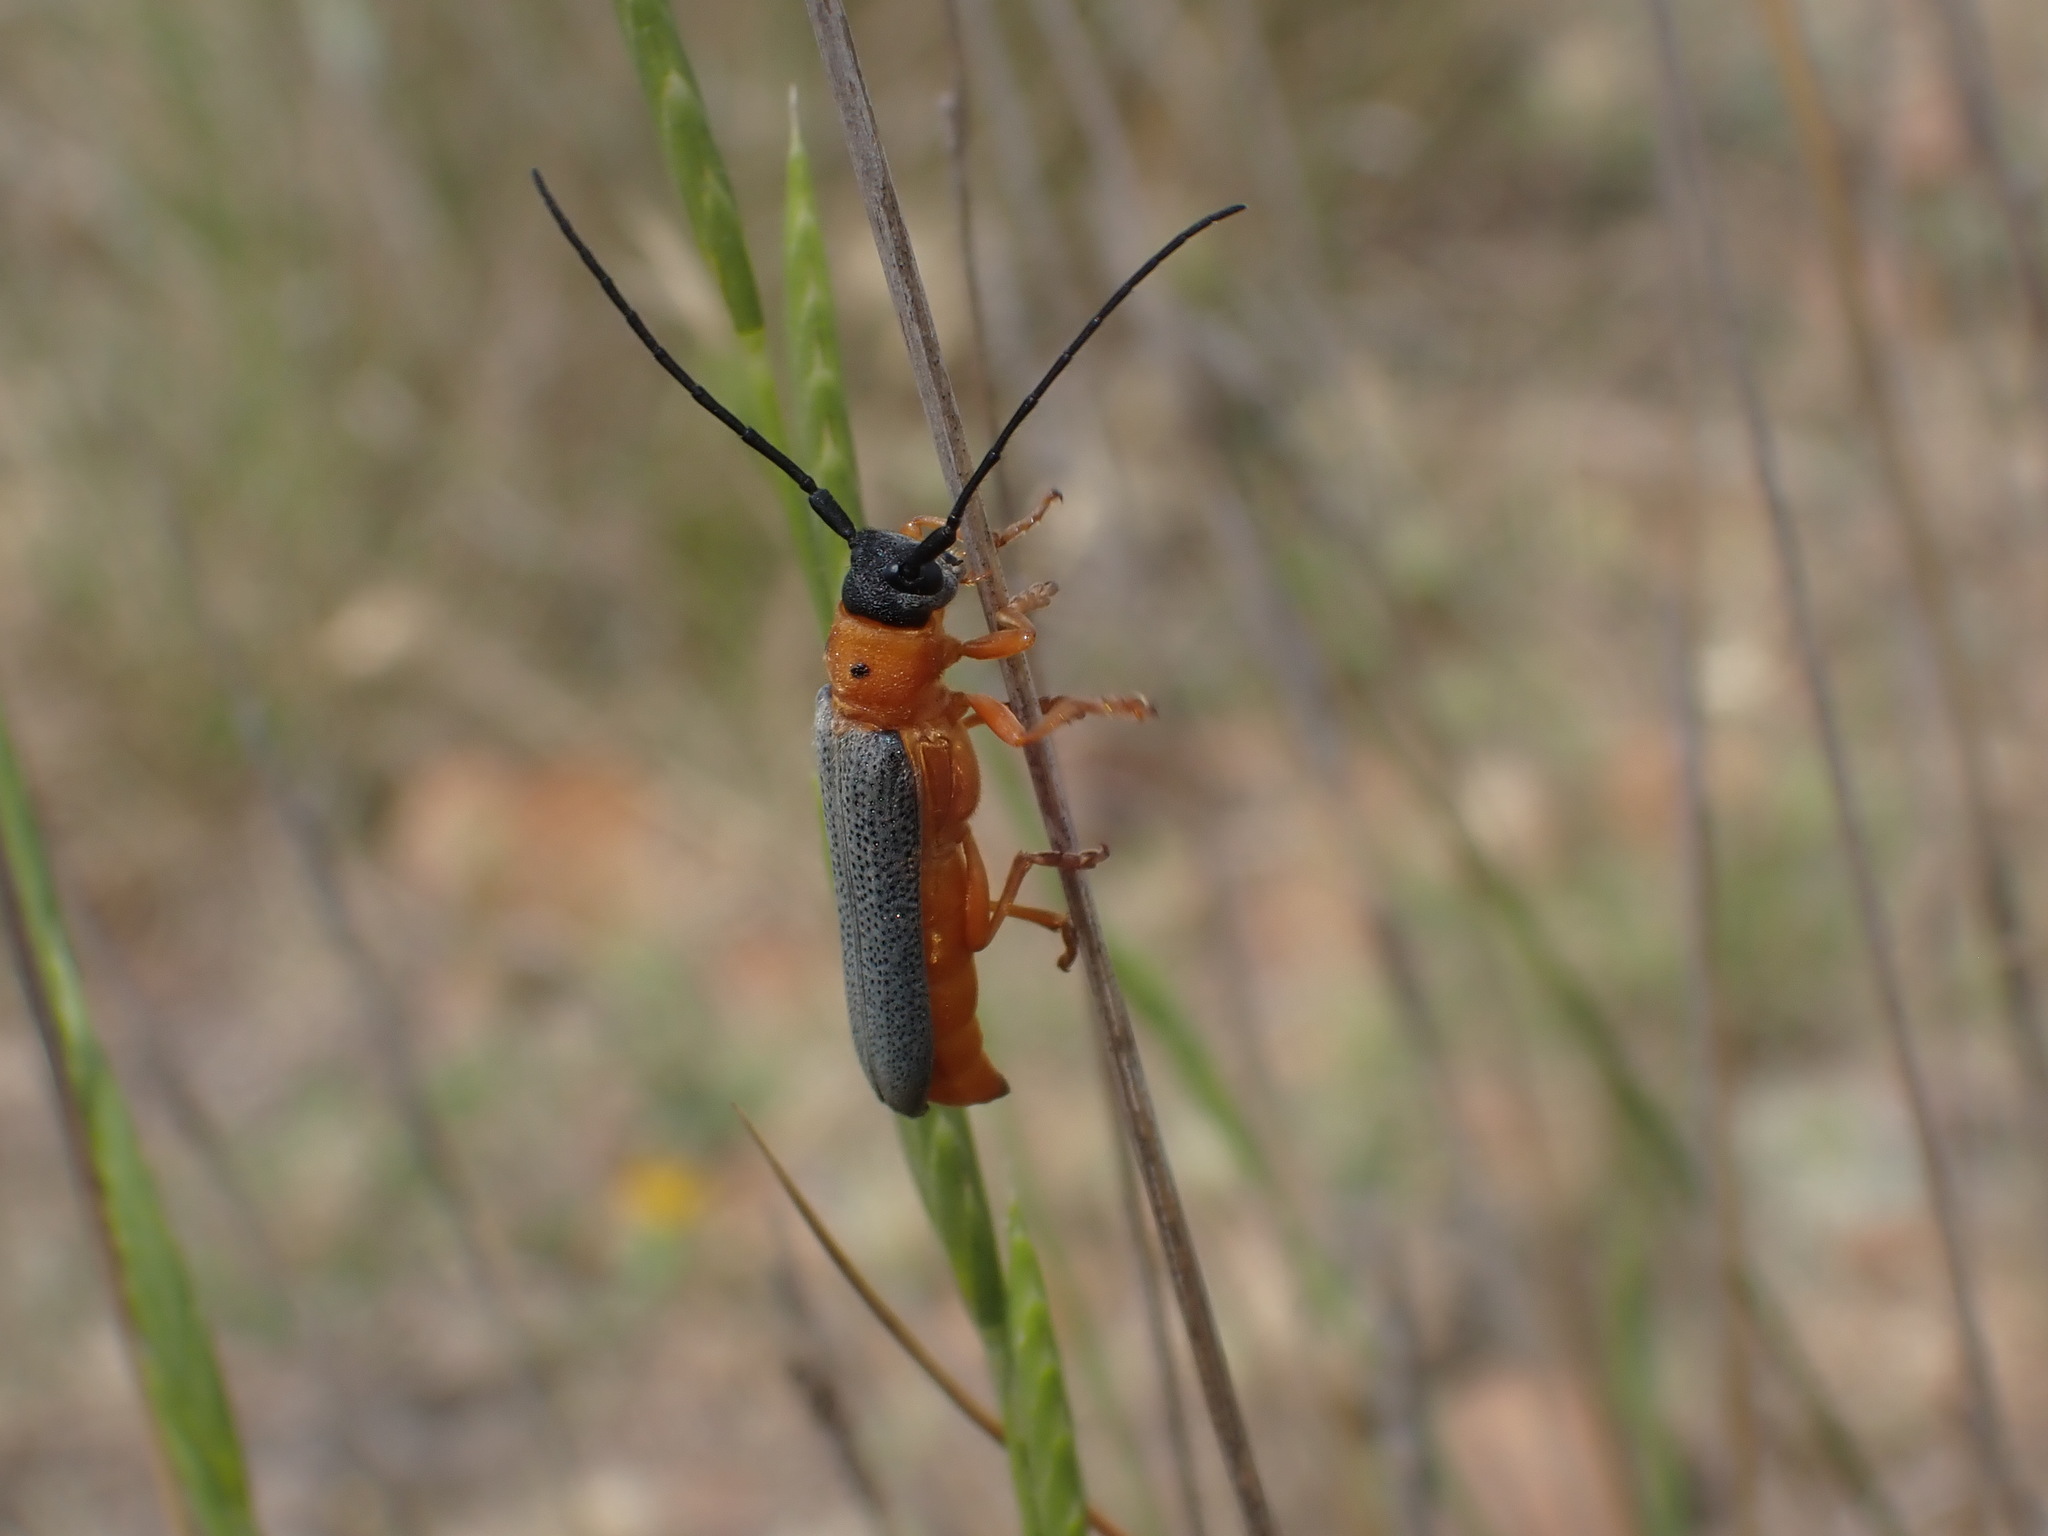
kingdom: Animalia
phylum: Arthropoda
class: Insecta
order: Coleoptera
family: Cerambycidae
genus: Oberea
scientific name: Oberea oculata
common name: Eyed longhorn beetle
